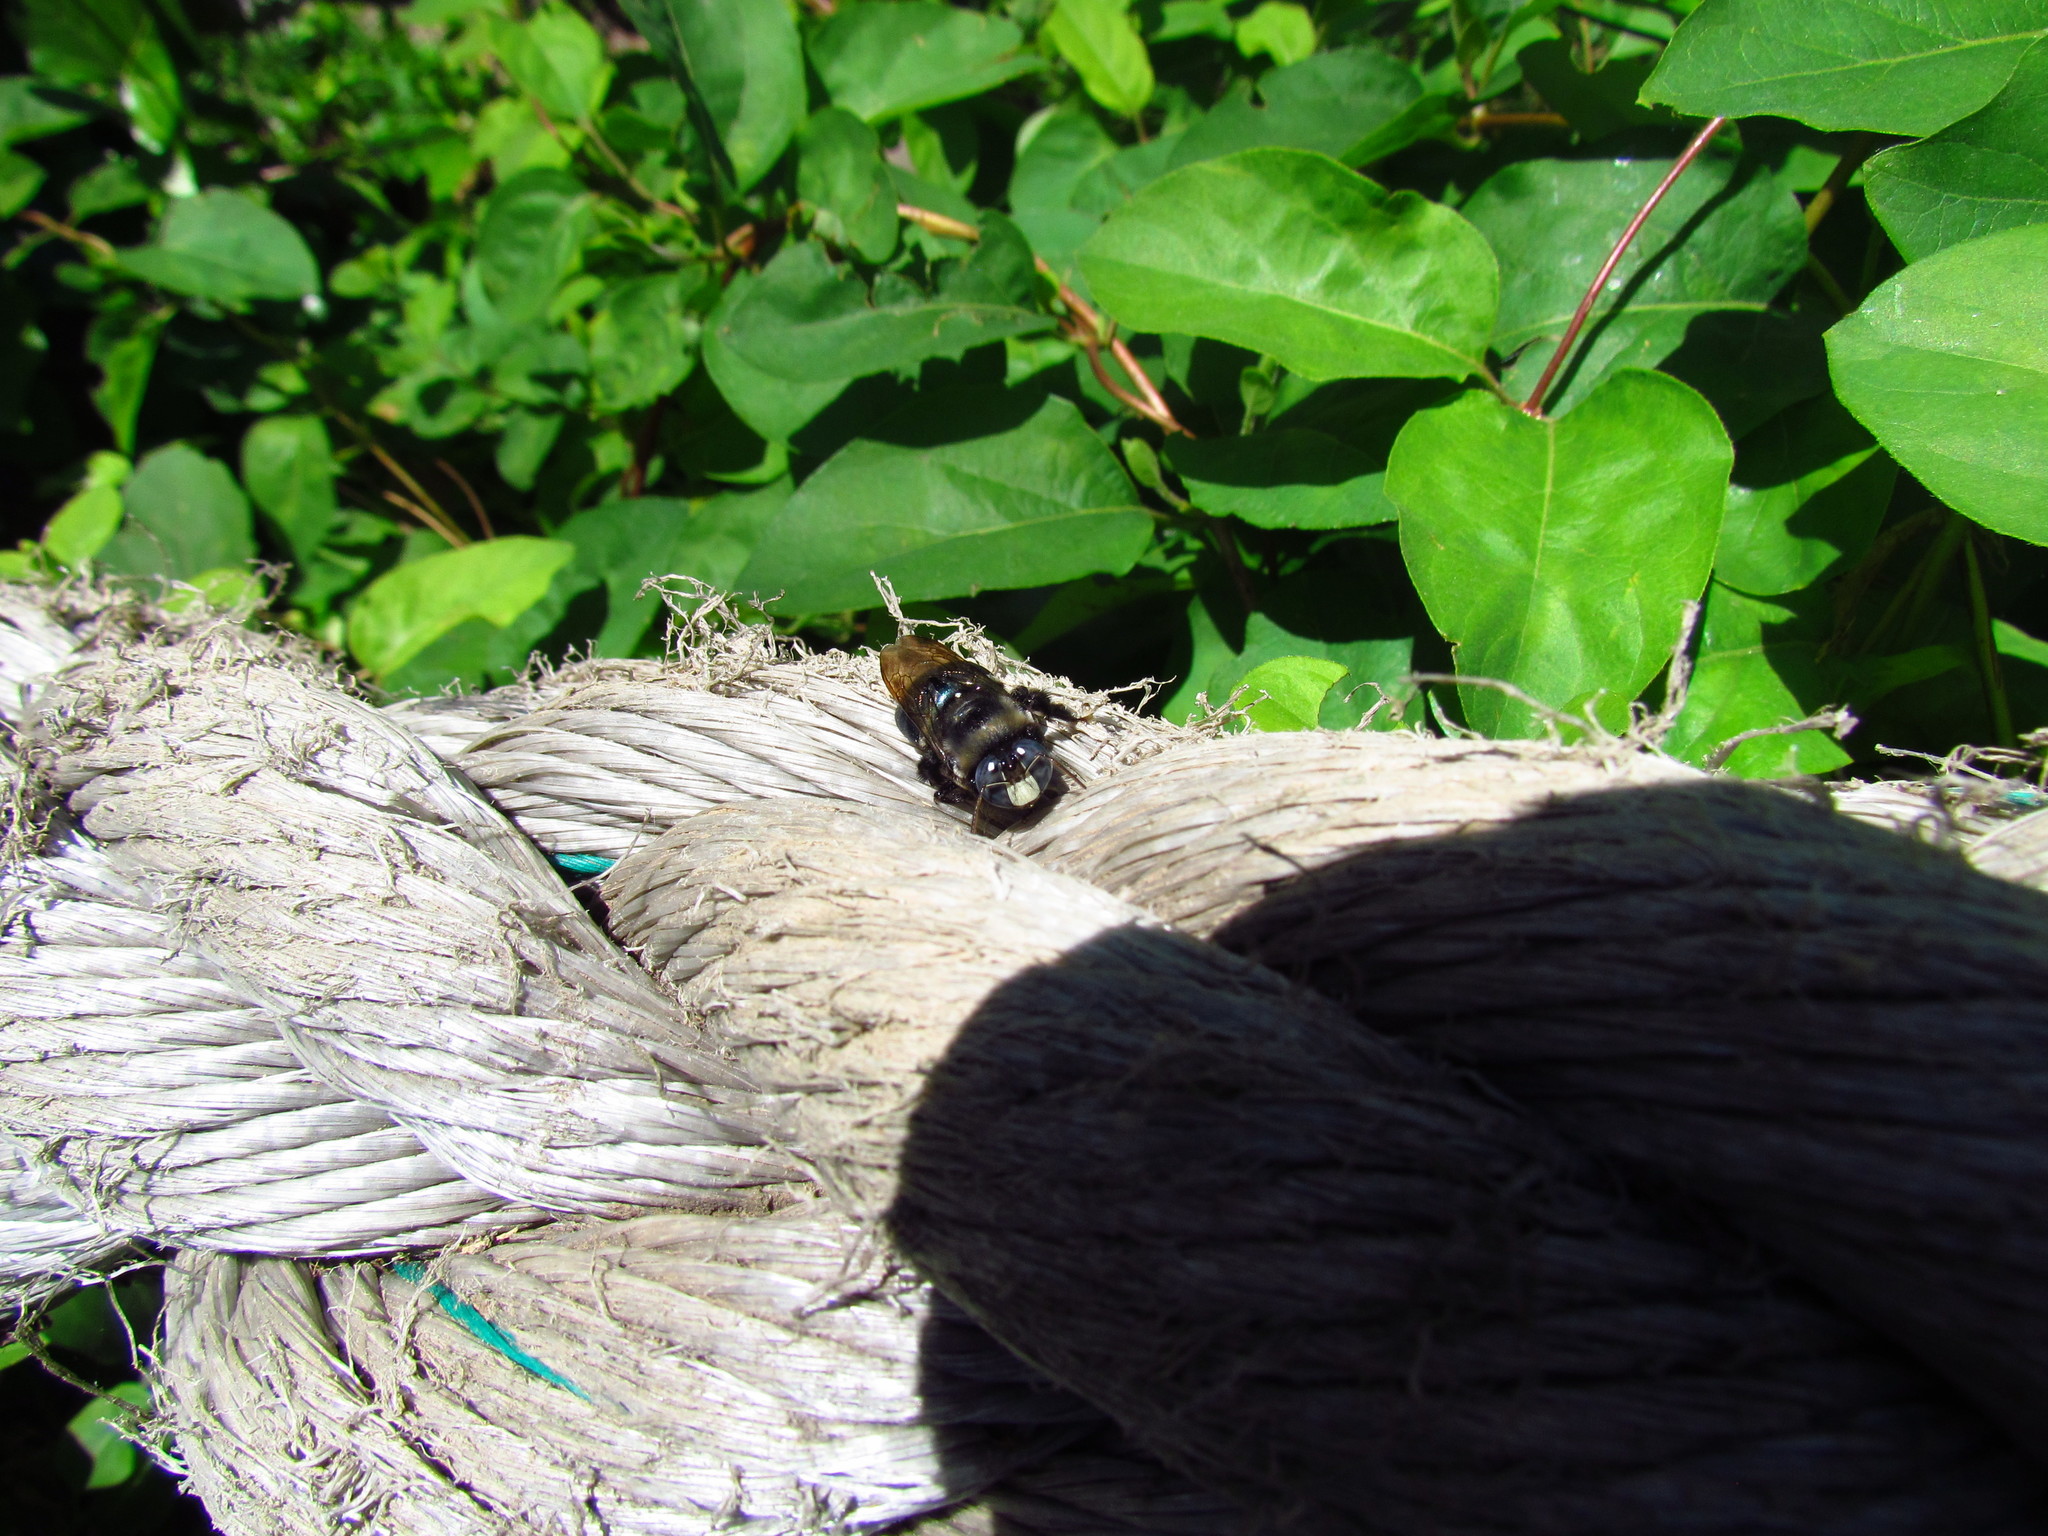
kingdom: Animalia
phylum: Arthropoda
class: Insecta
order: Hymenoptera
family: Apidae
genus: Xylocopa
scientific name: Xylocopa splendidula
